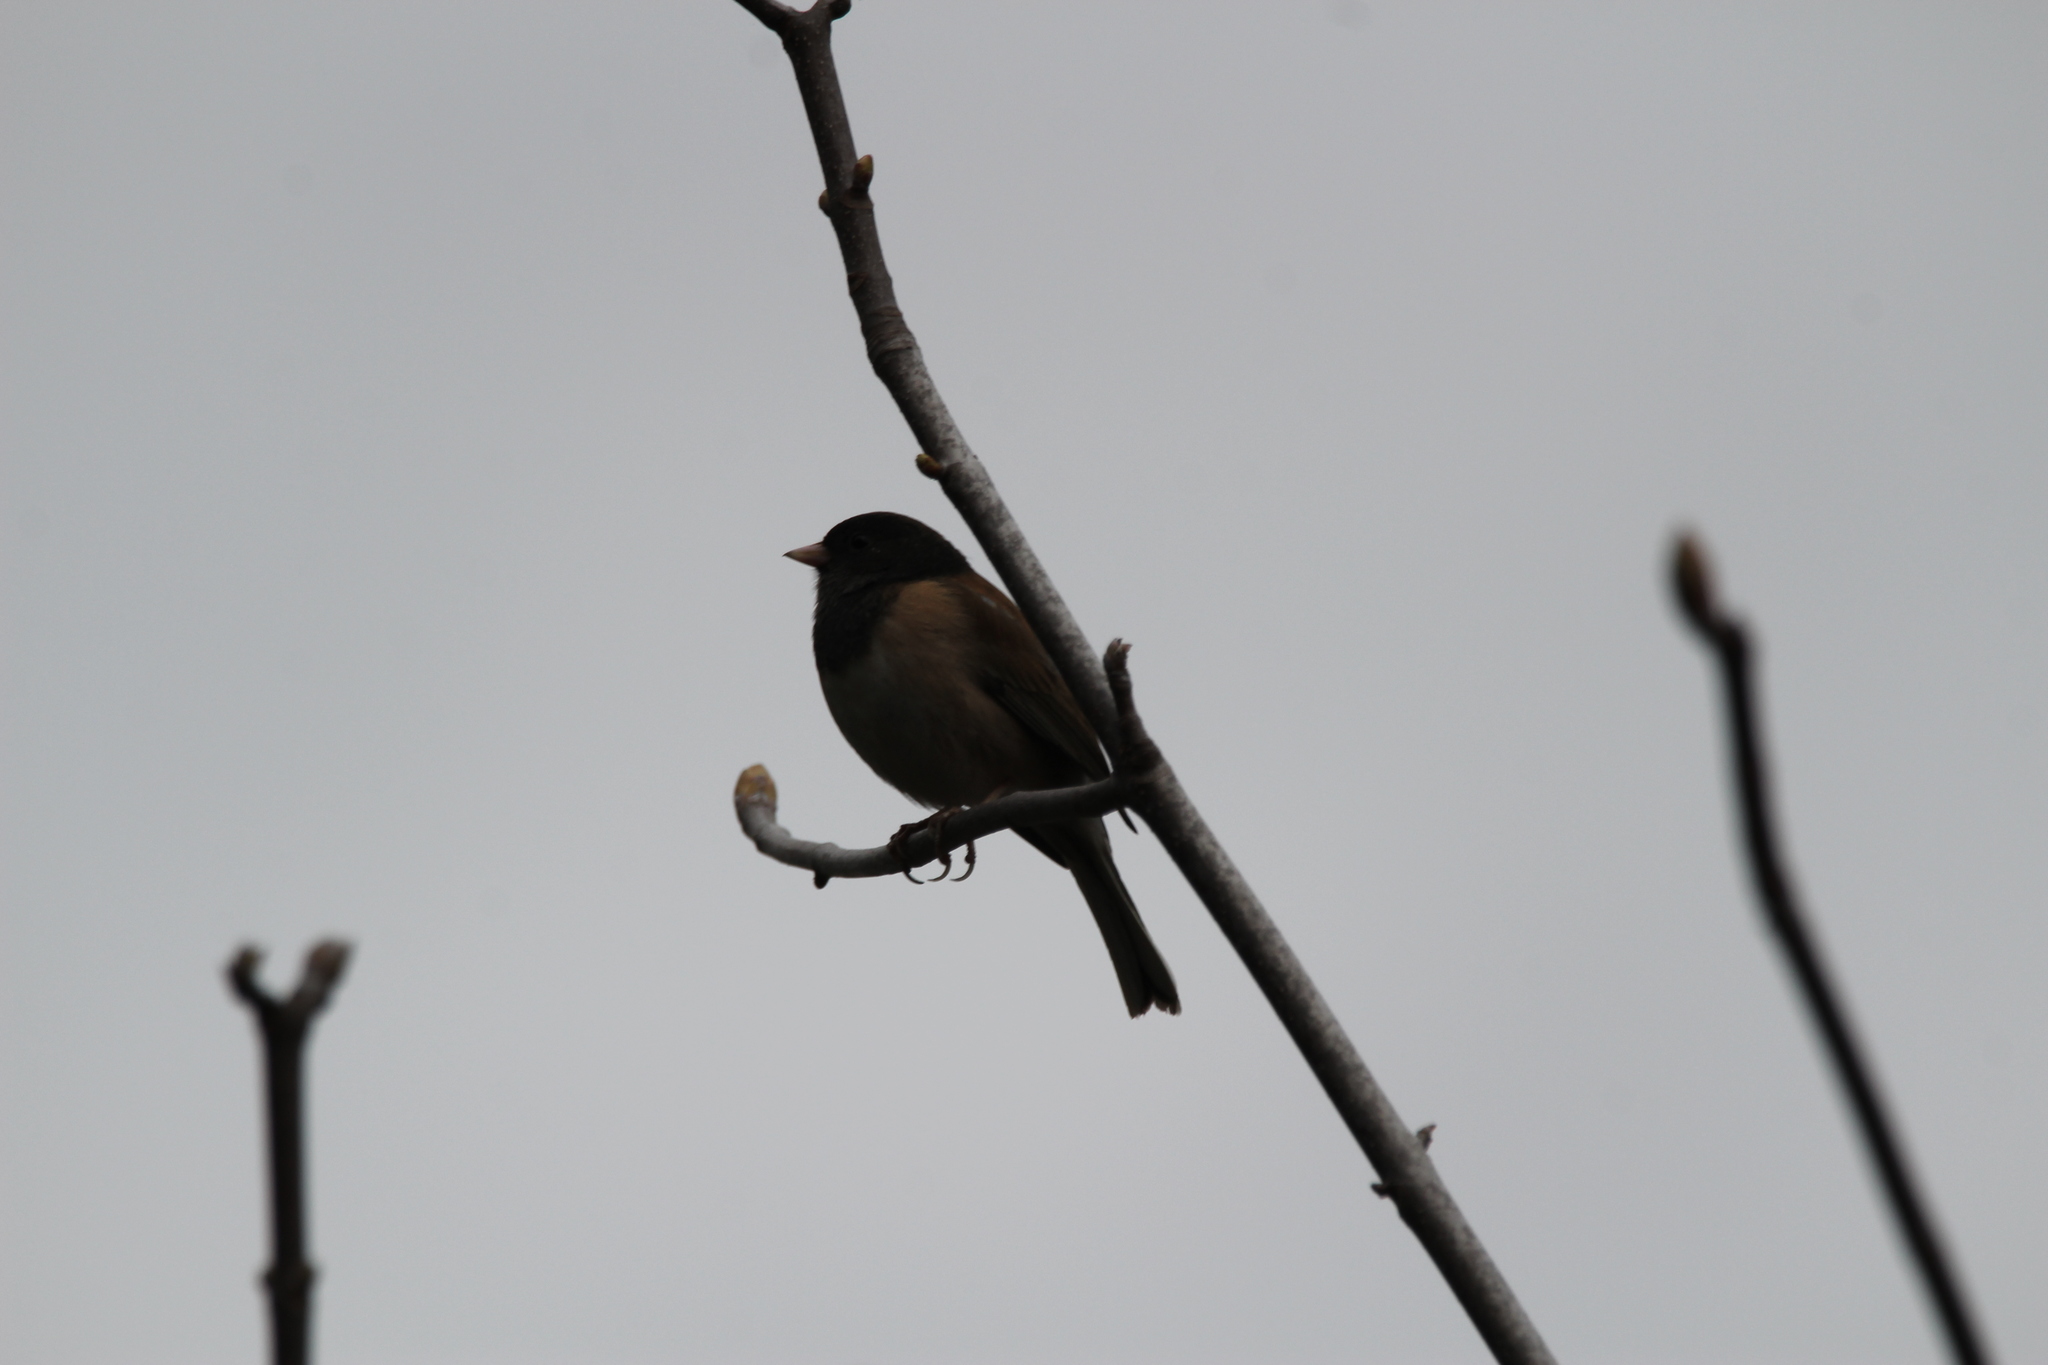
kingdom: Animalia
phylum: Chordata
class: Aves
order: Passeriformes
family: Passerellidae
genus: Junco
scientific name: Junco hyemalis
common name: Dark-eyed junco
